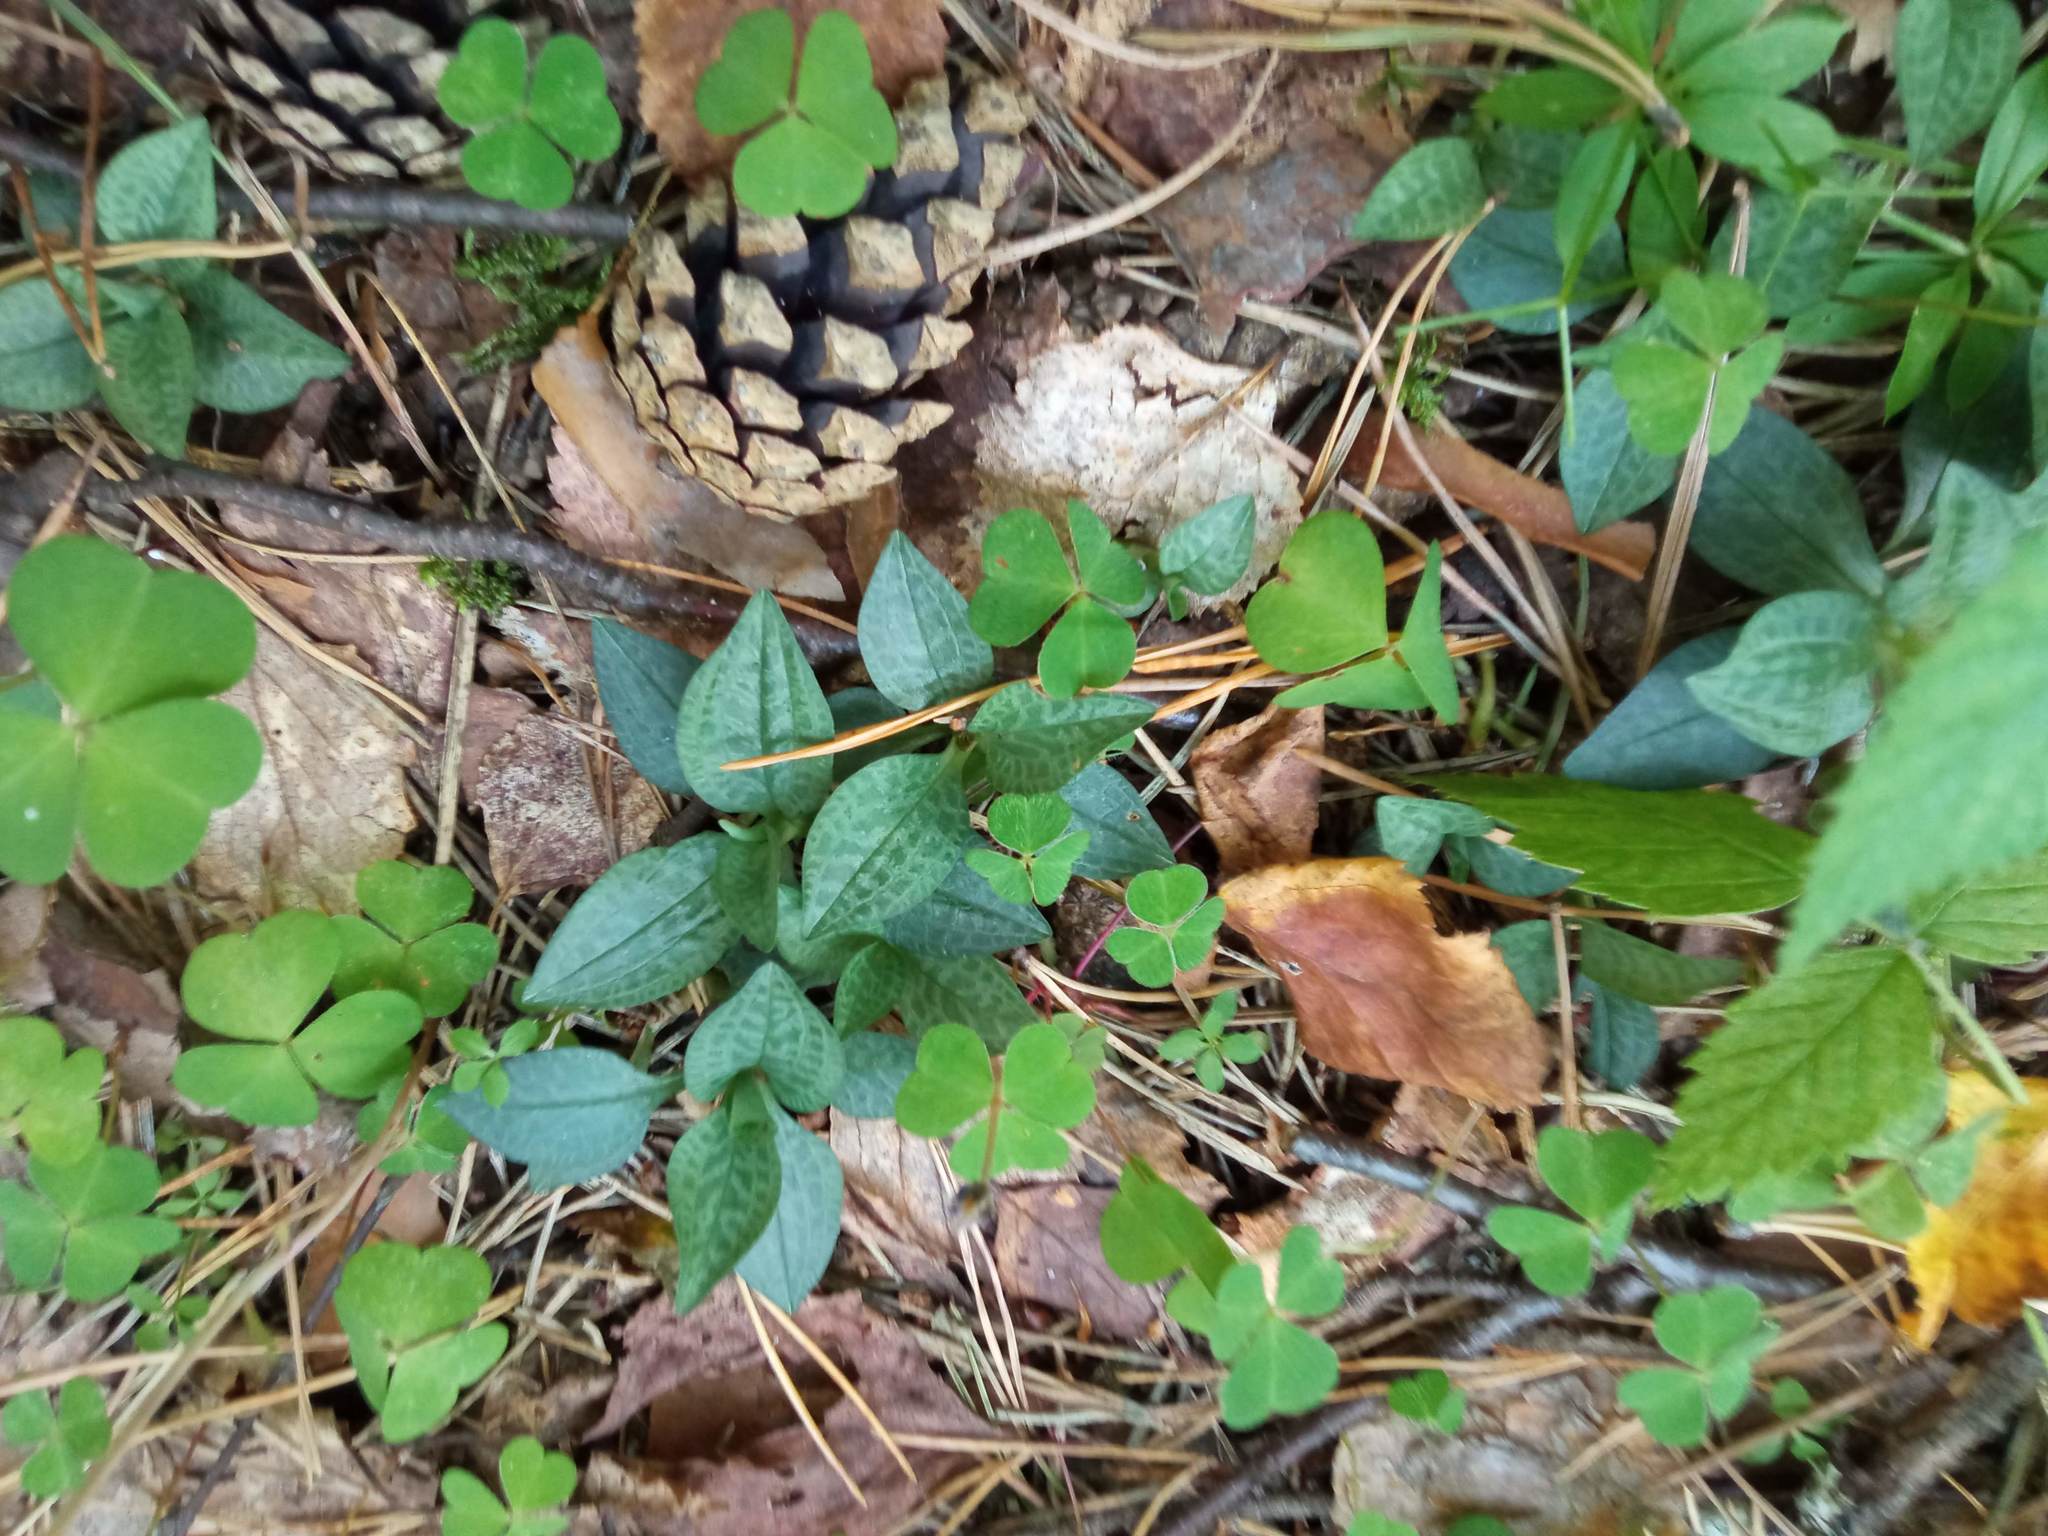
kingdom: Plantae
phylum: Tracheophyta
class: Liliopsida
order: Asparagales
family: Orchidaceae
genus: Goodyera
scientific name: Goodyera repens
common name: Creeping lady's-tresses
